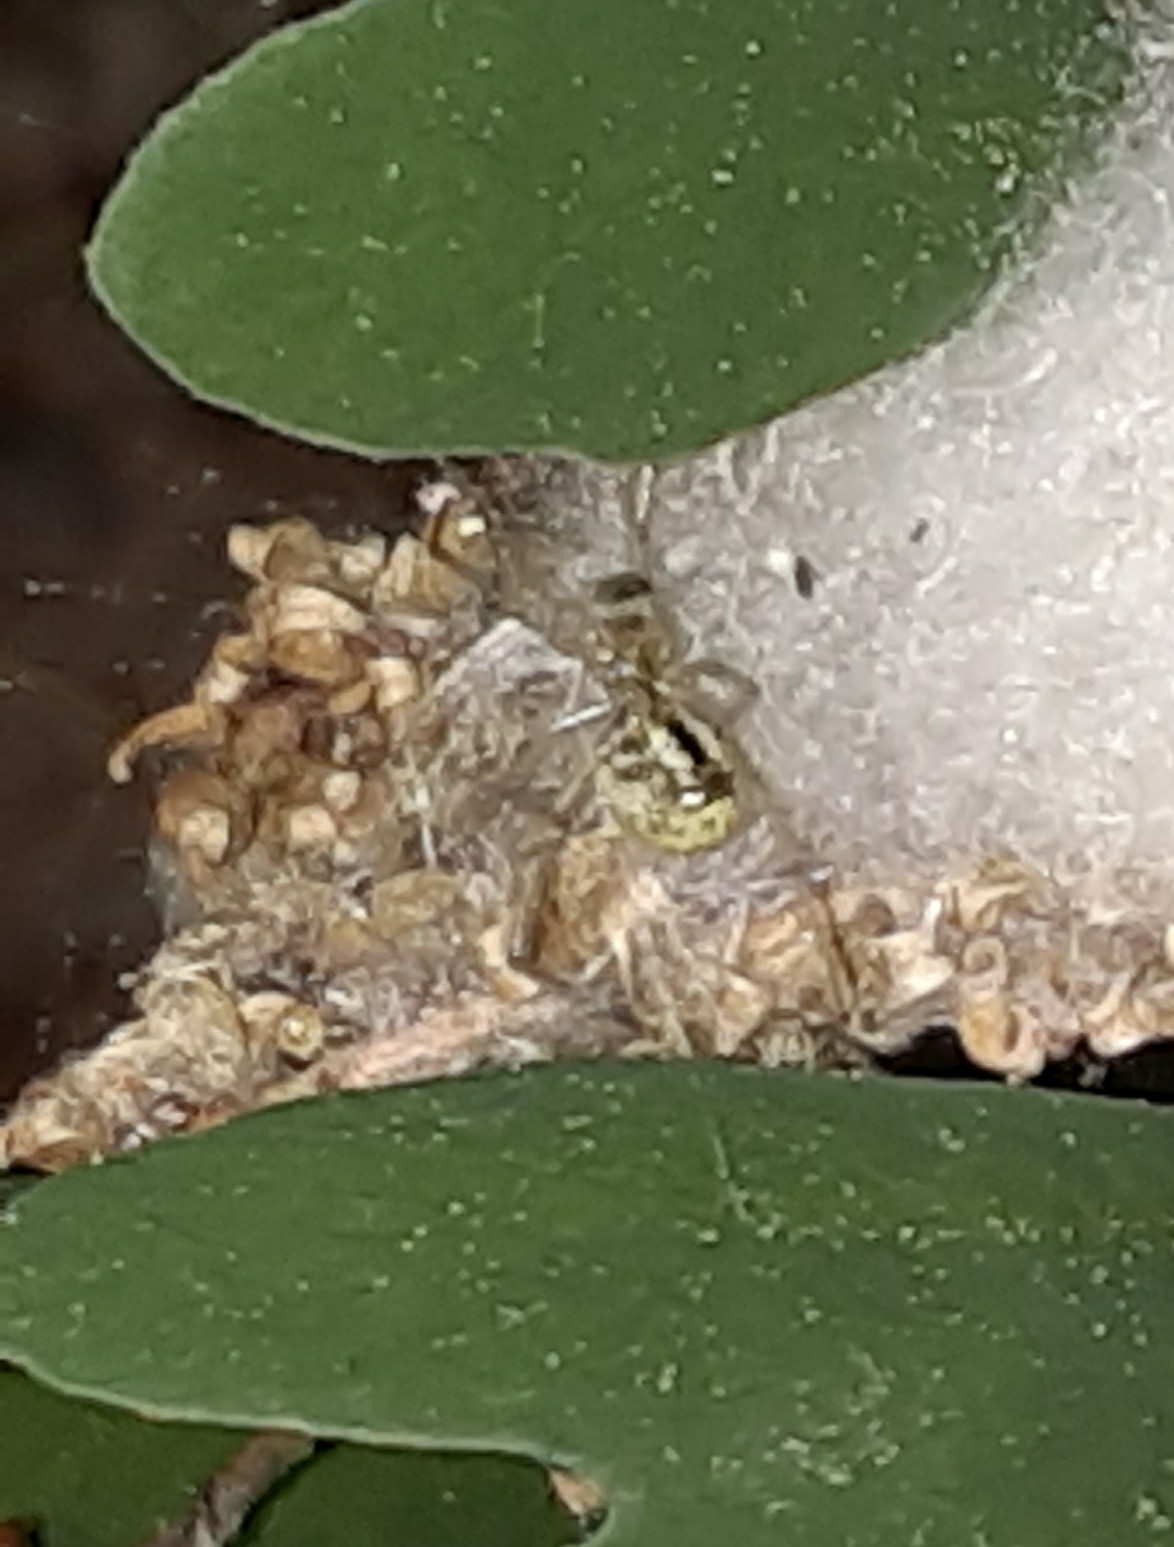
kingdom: Animalia
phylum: Arthropoda
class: Arachnida
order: Araneae
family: Theridiidae
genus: Enoplognatha
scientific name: Enoplognatha ovata
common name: Common candy-striped spider
